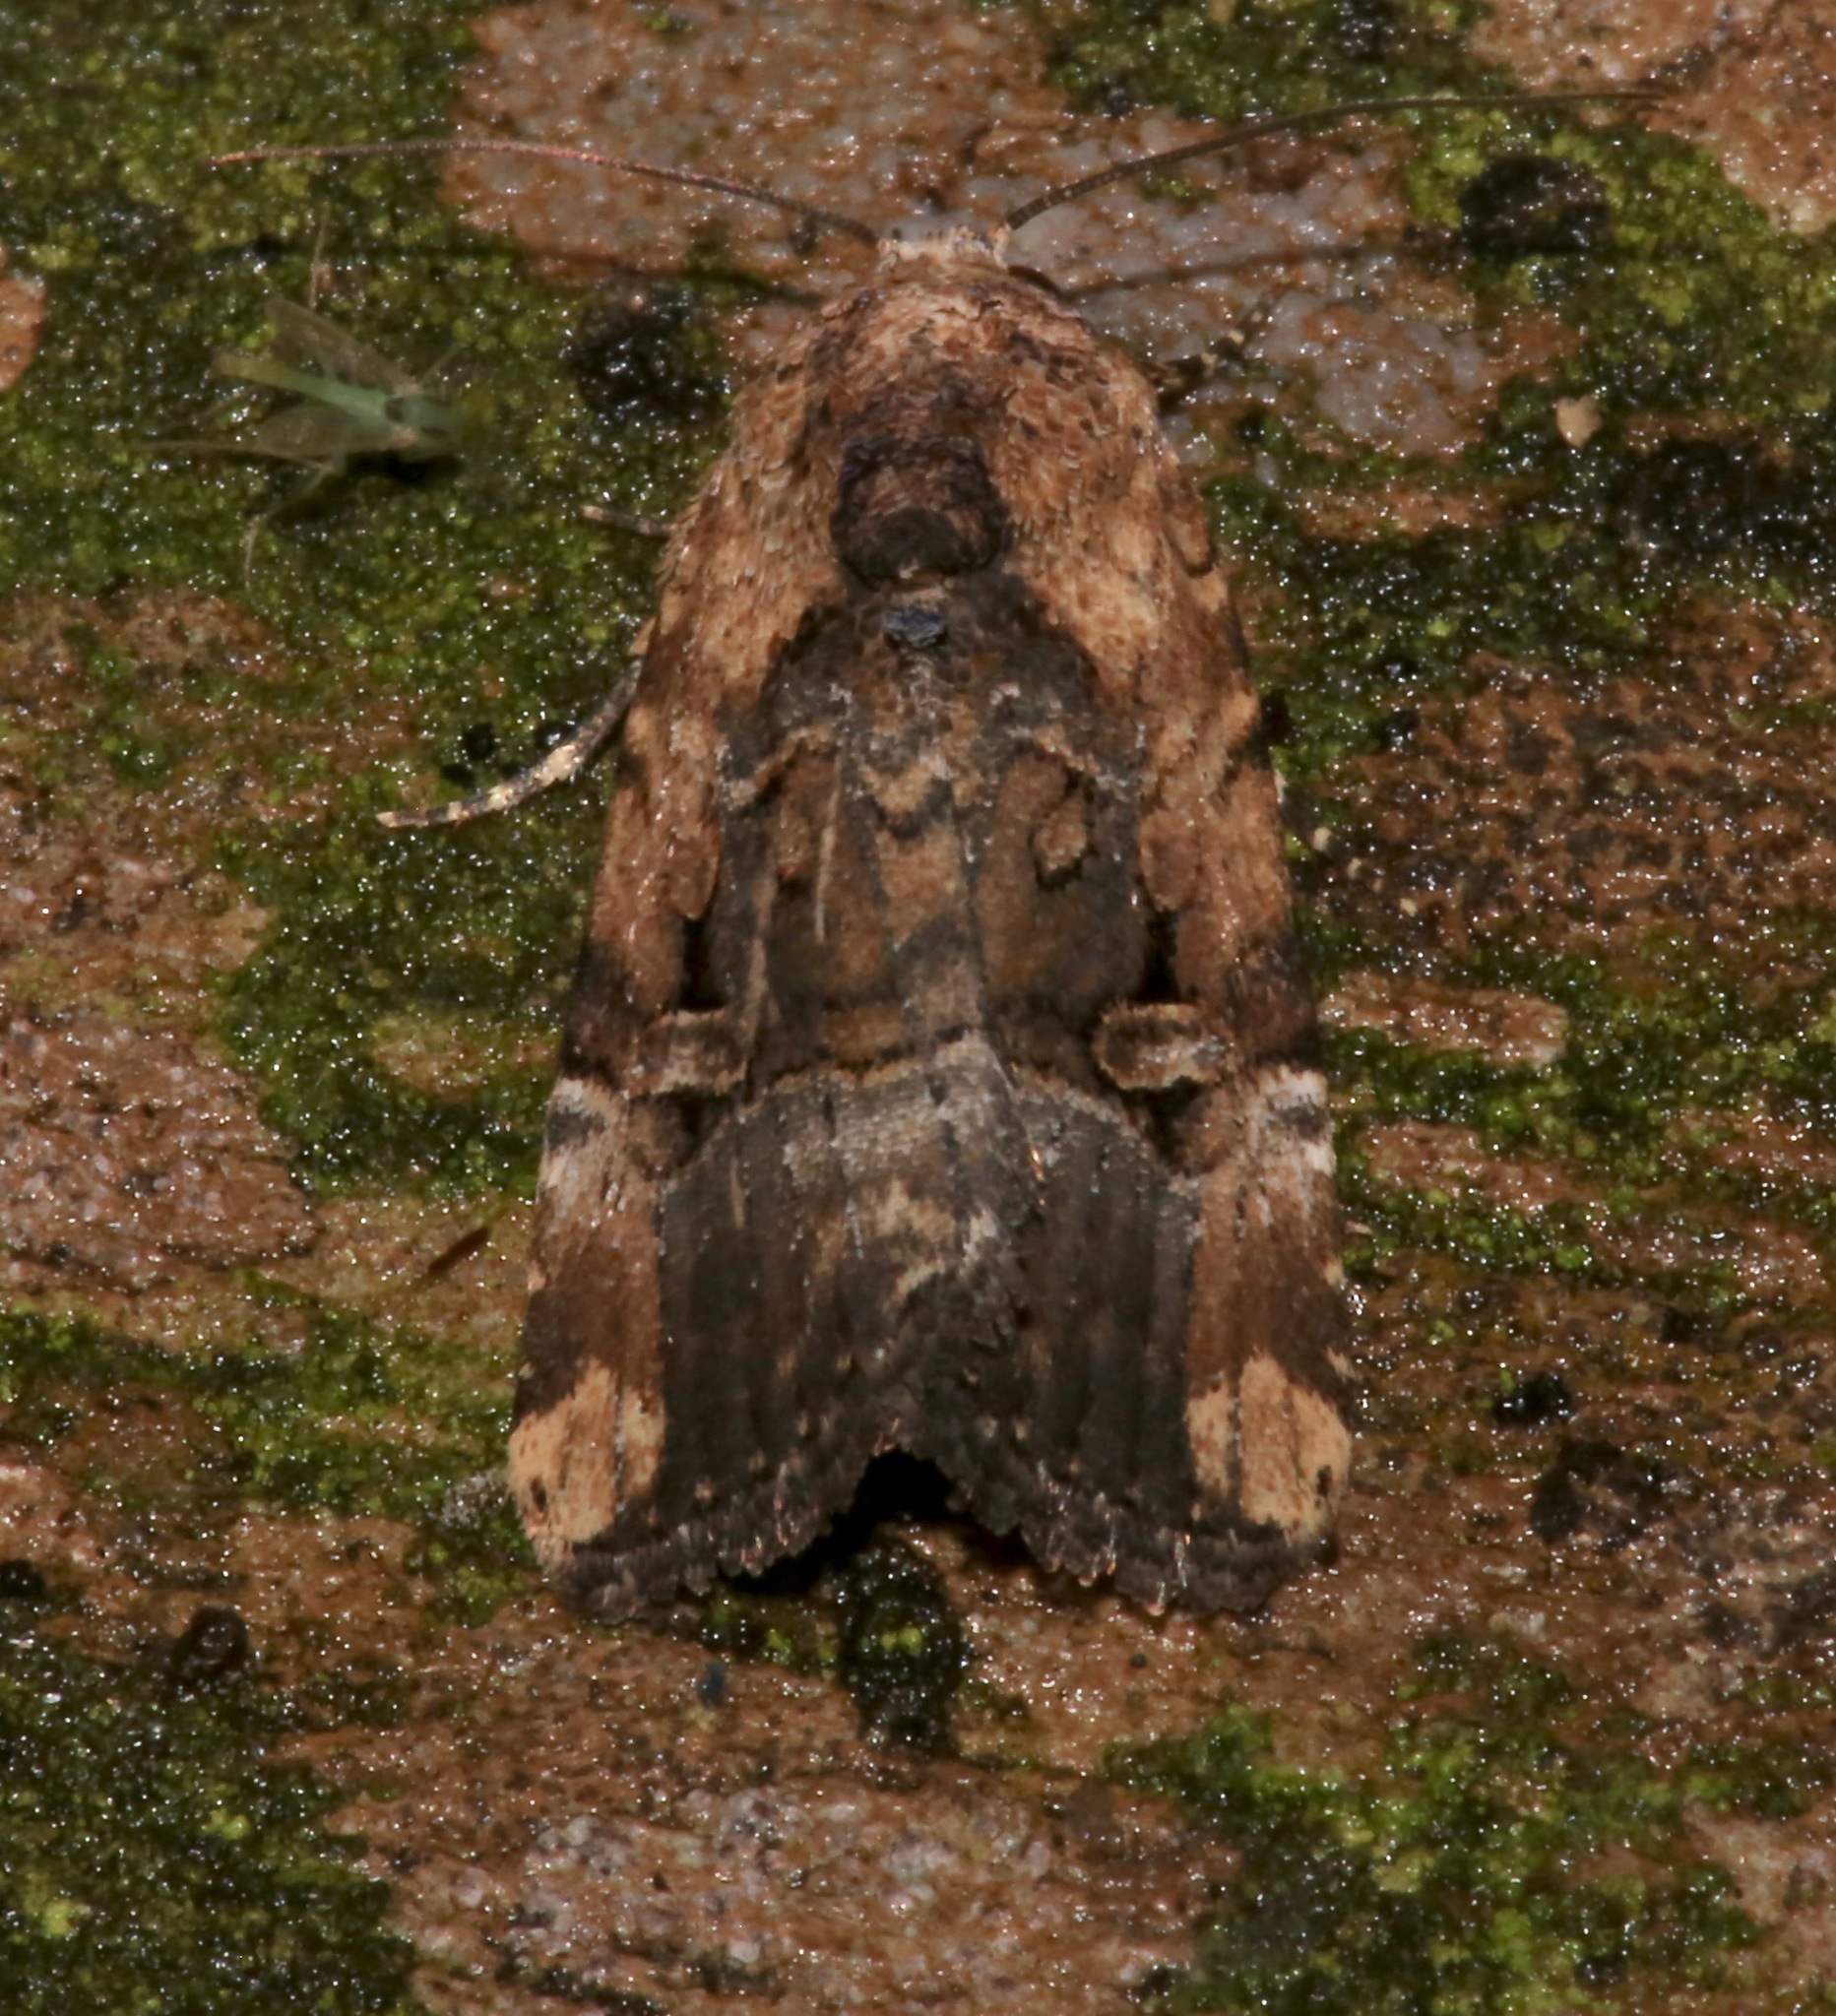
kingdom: Animalia
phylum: Arthropoda
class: Insecta
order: Lepidoptera
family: Noctuidae
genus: Elaphria
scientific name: Elaphria chalcedonia
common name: Chalcedony midget
